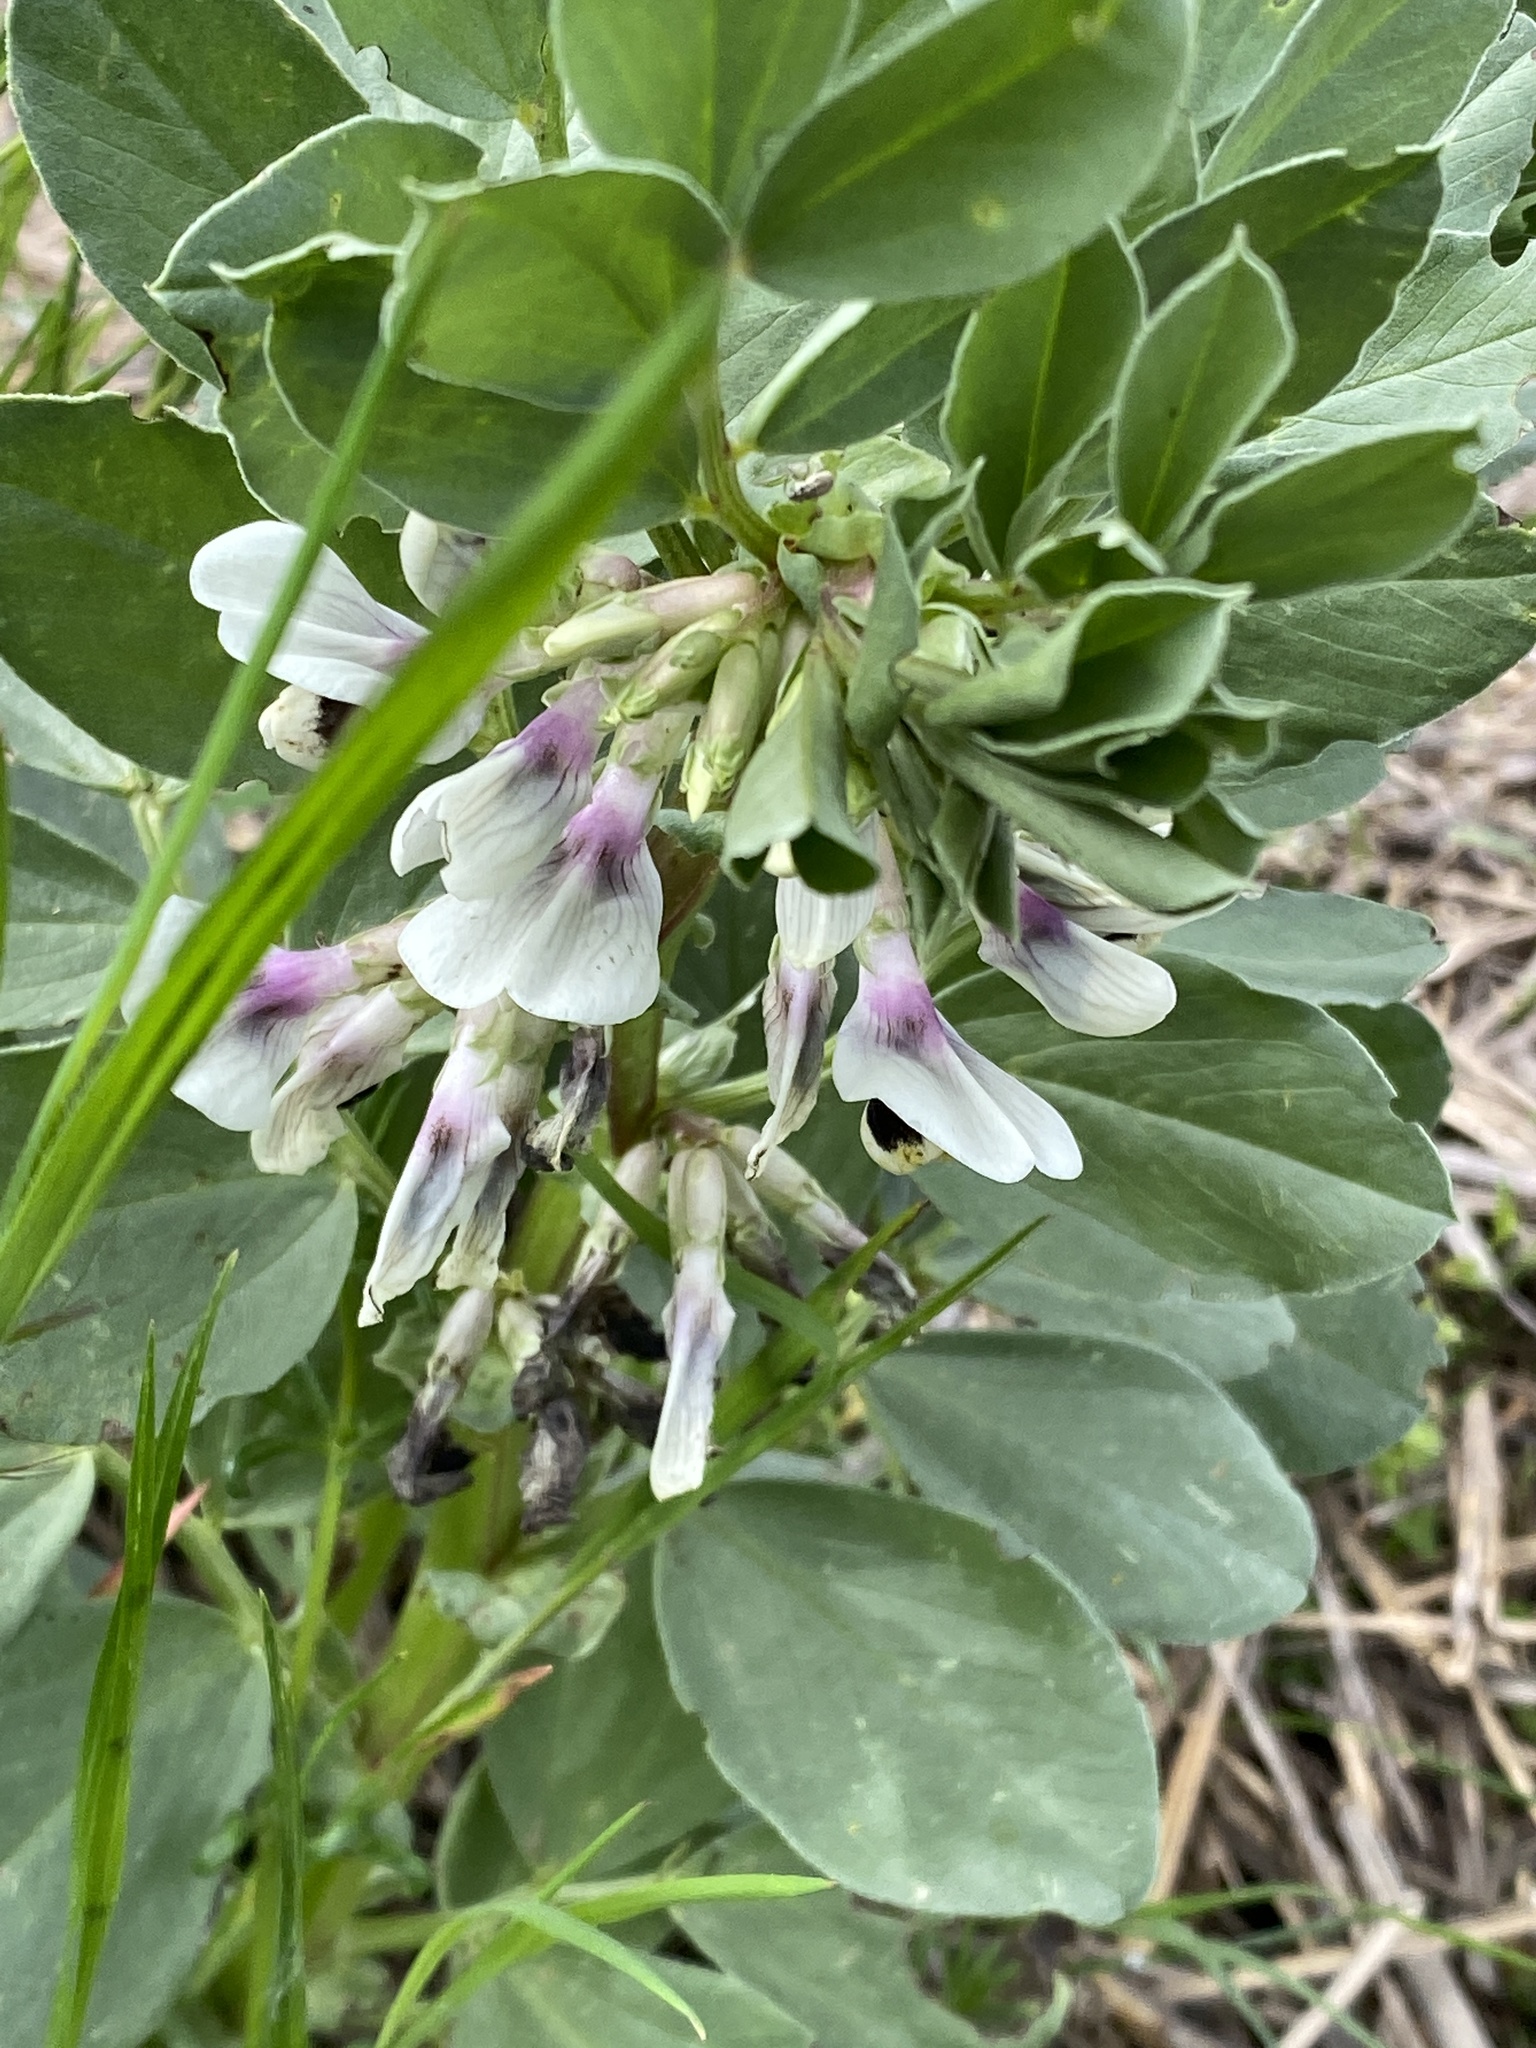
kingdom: Plantae
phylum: Tracheophyta
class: Magnoliopsida
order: Fabales
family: Fabaceae
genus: Vicia
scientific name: Vicia faba
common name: Broad bean
